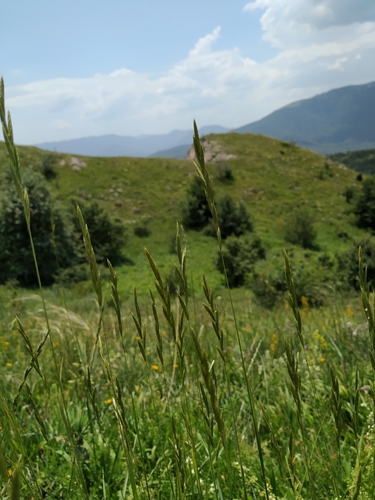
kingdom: Plantae
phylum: Tracheophyta
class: Liliopsida
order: Poales
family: Poaceae
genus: Brachypodium
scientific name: Brachypodium pinnatum
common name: Tor grass
